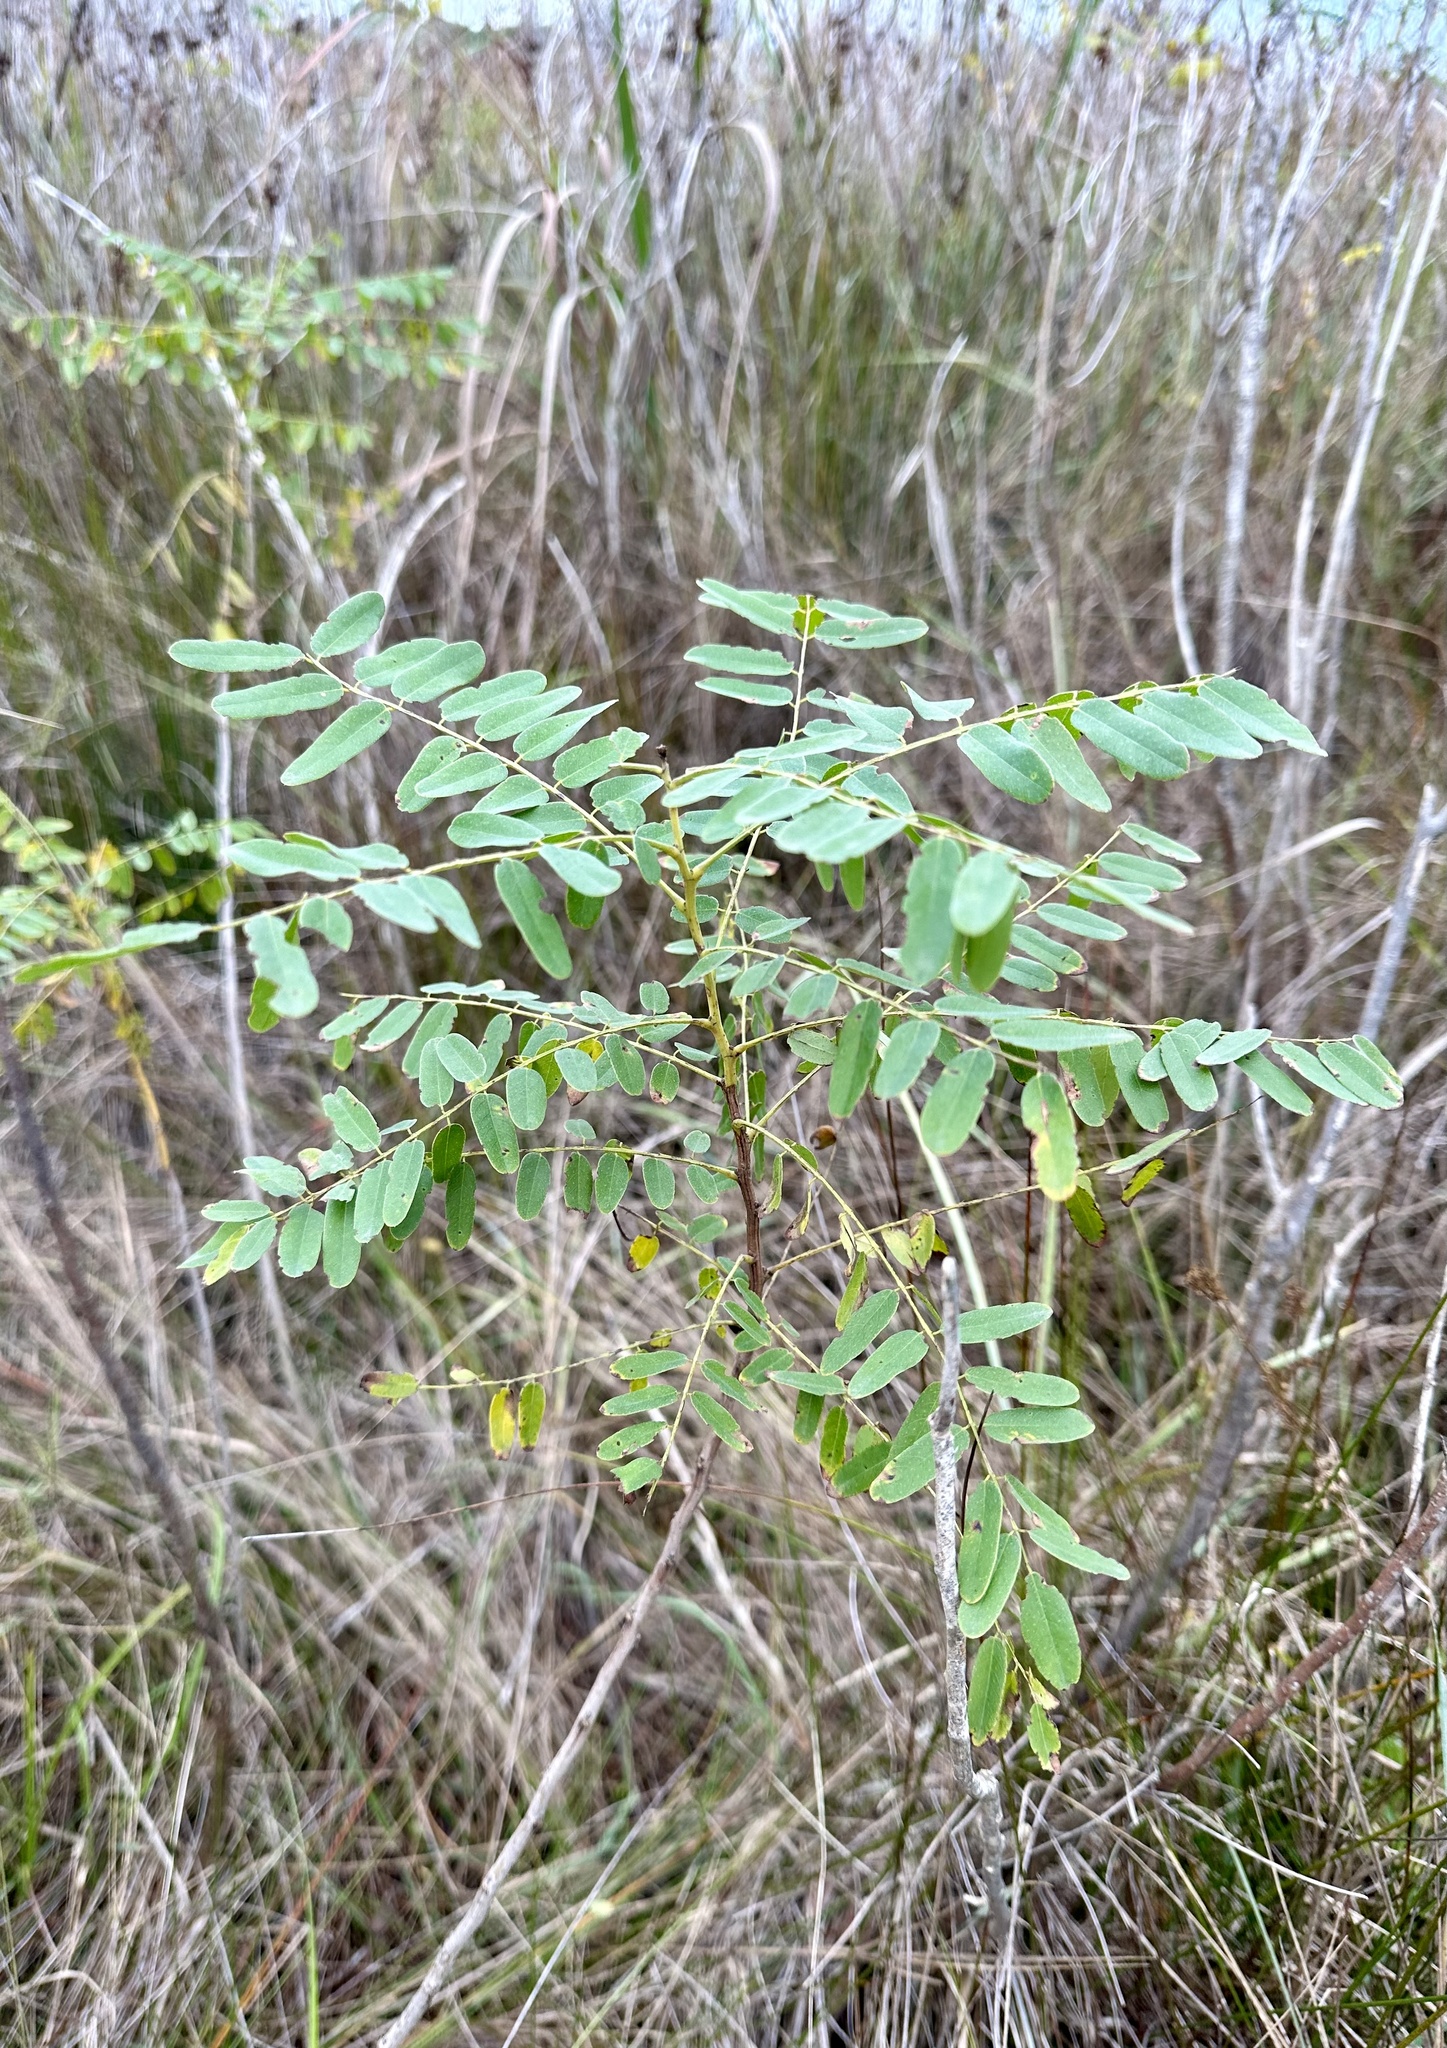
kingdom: Plantae
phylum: Tracheophyta
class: Magnoliopsida
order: Fabales
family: Fabaceae
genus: Amorpha
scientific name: Amorpha fruticosa
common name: False indigo
